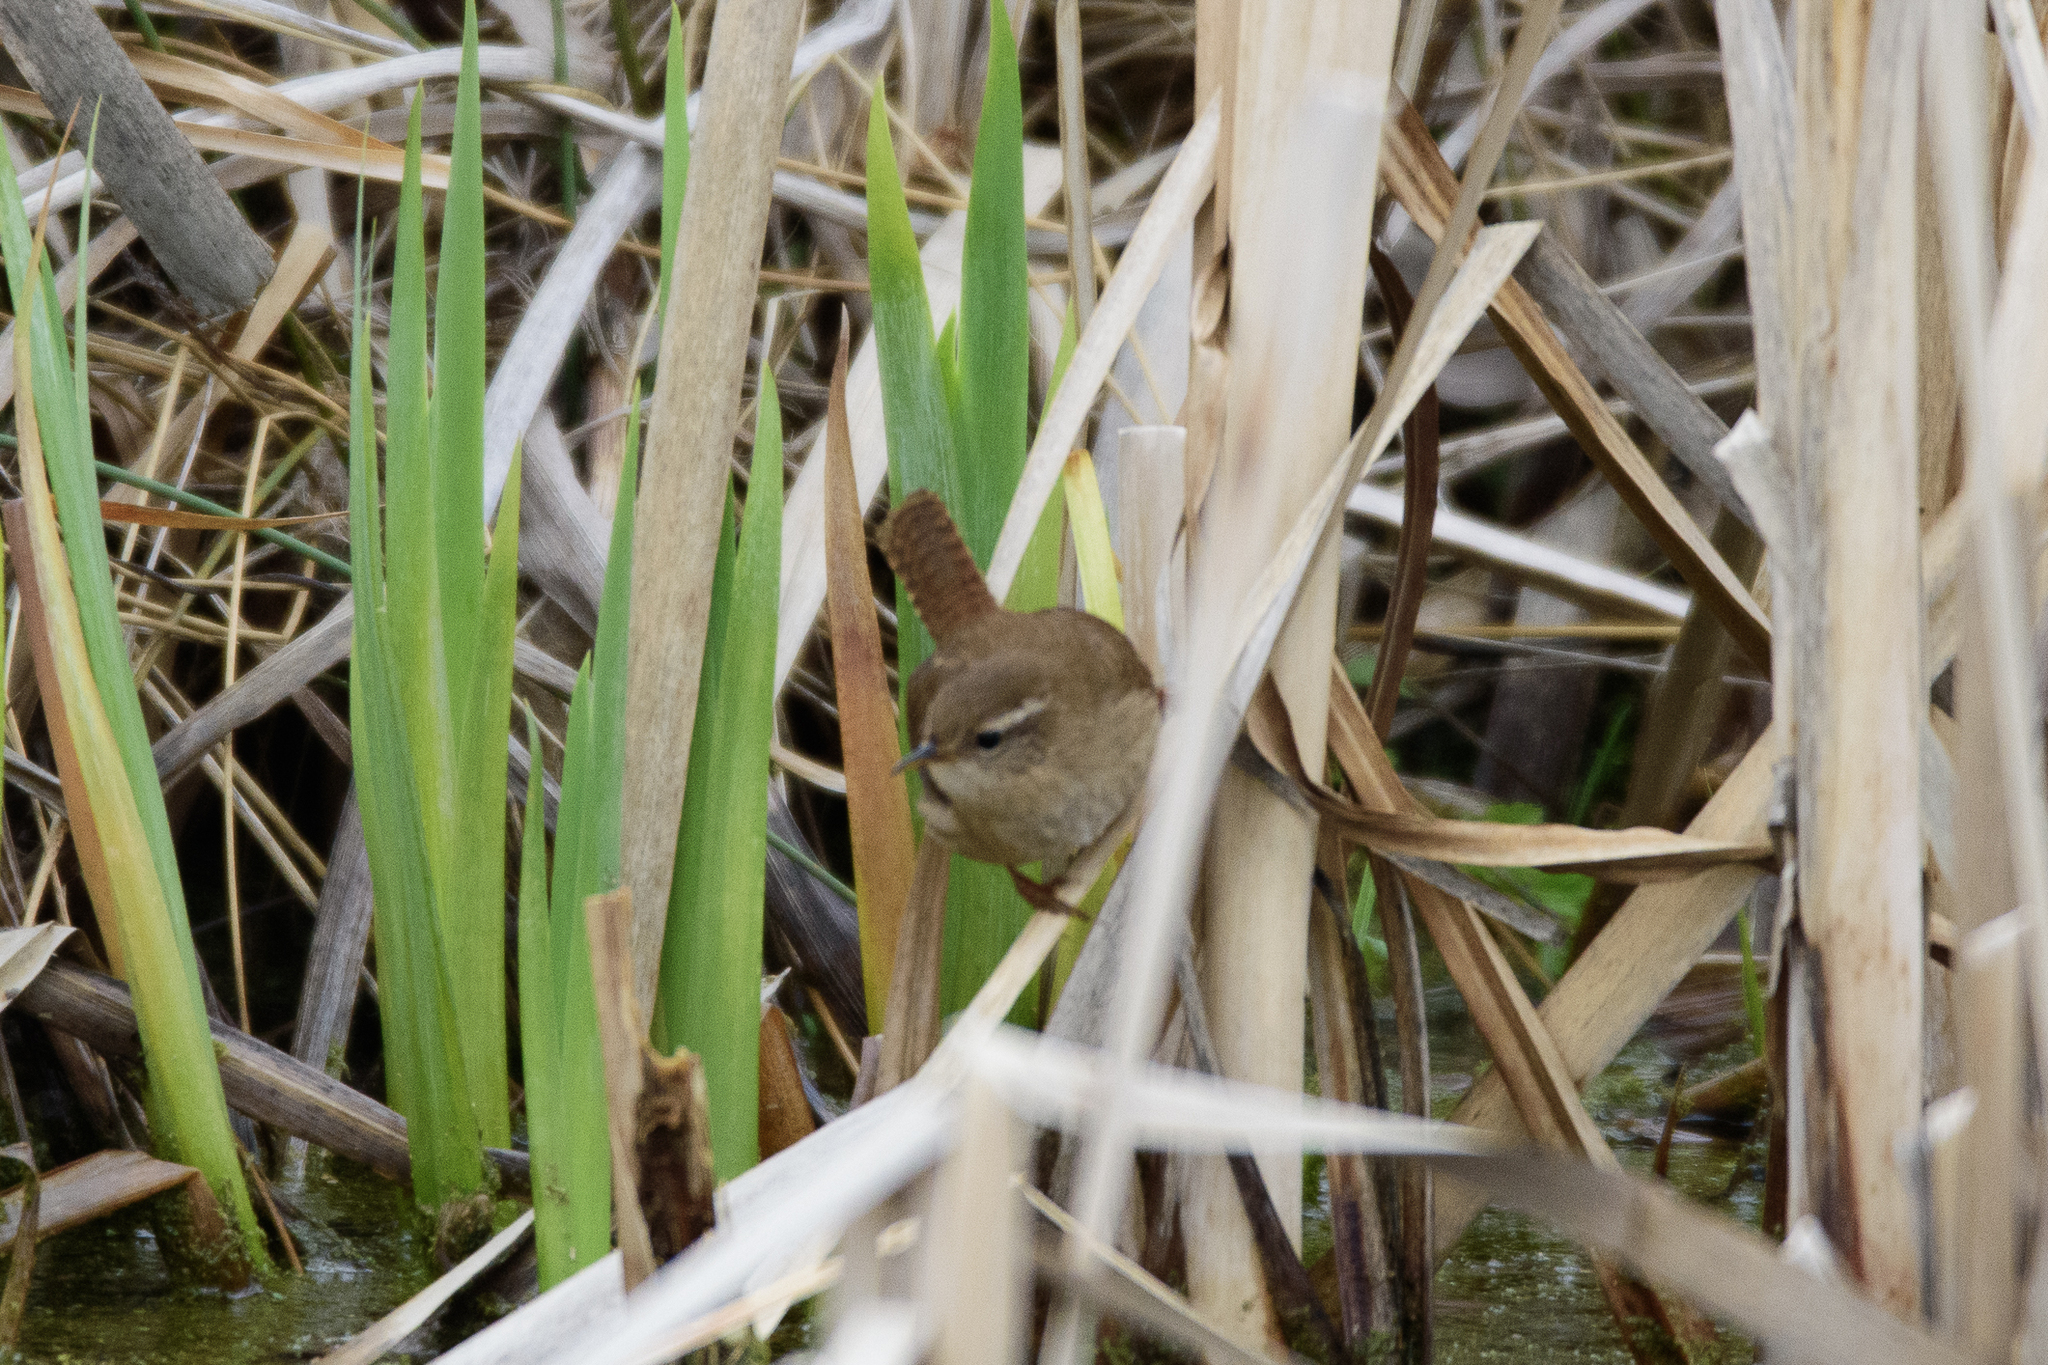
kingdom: Animalia
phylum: Chordata
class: Aves
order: Passeriformes
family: Troglodytidae
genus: Troglodytes
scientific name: Troglodytes troglodytes
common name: Eurasian wren
